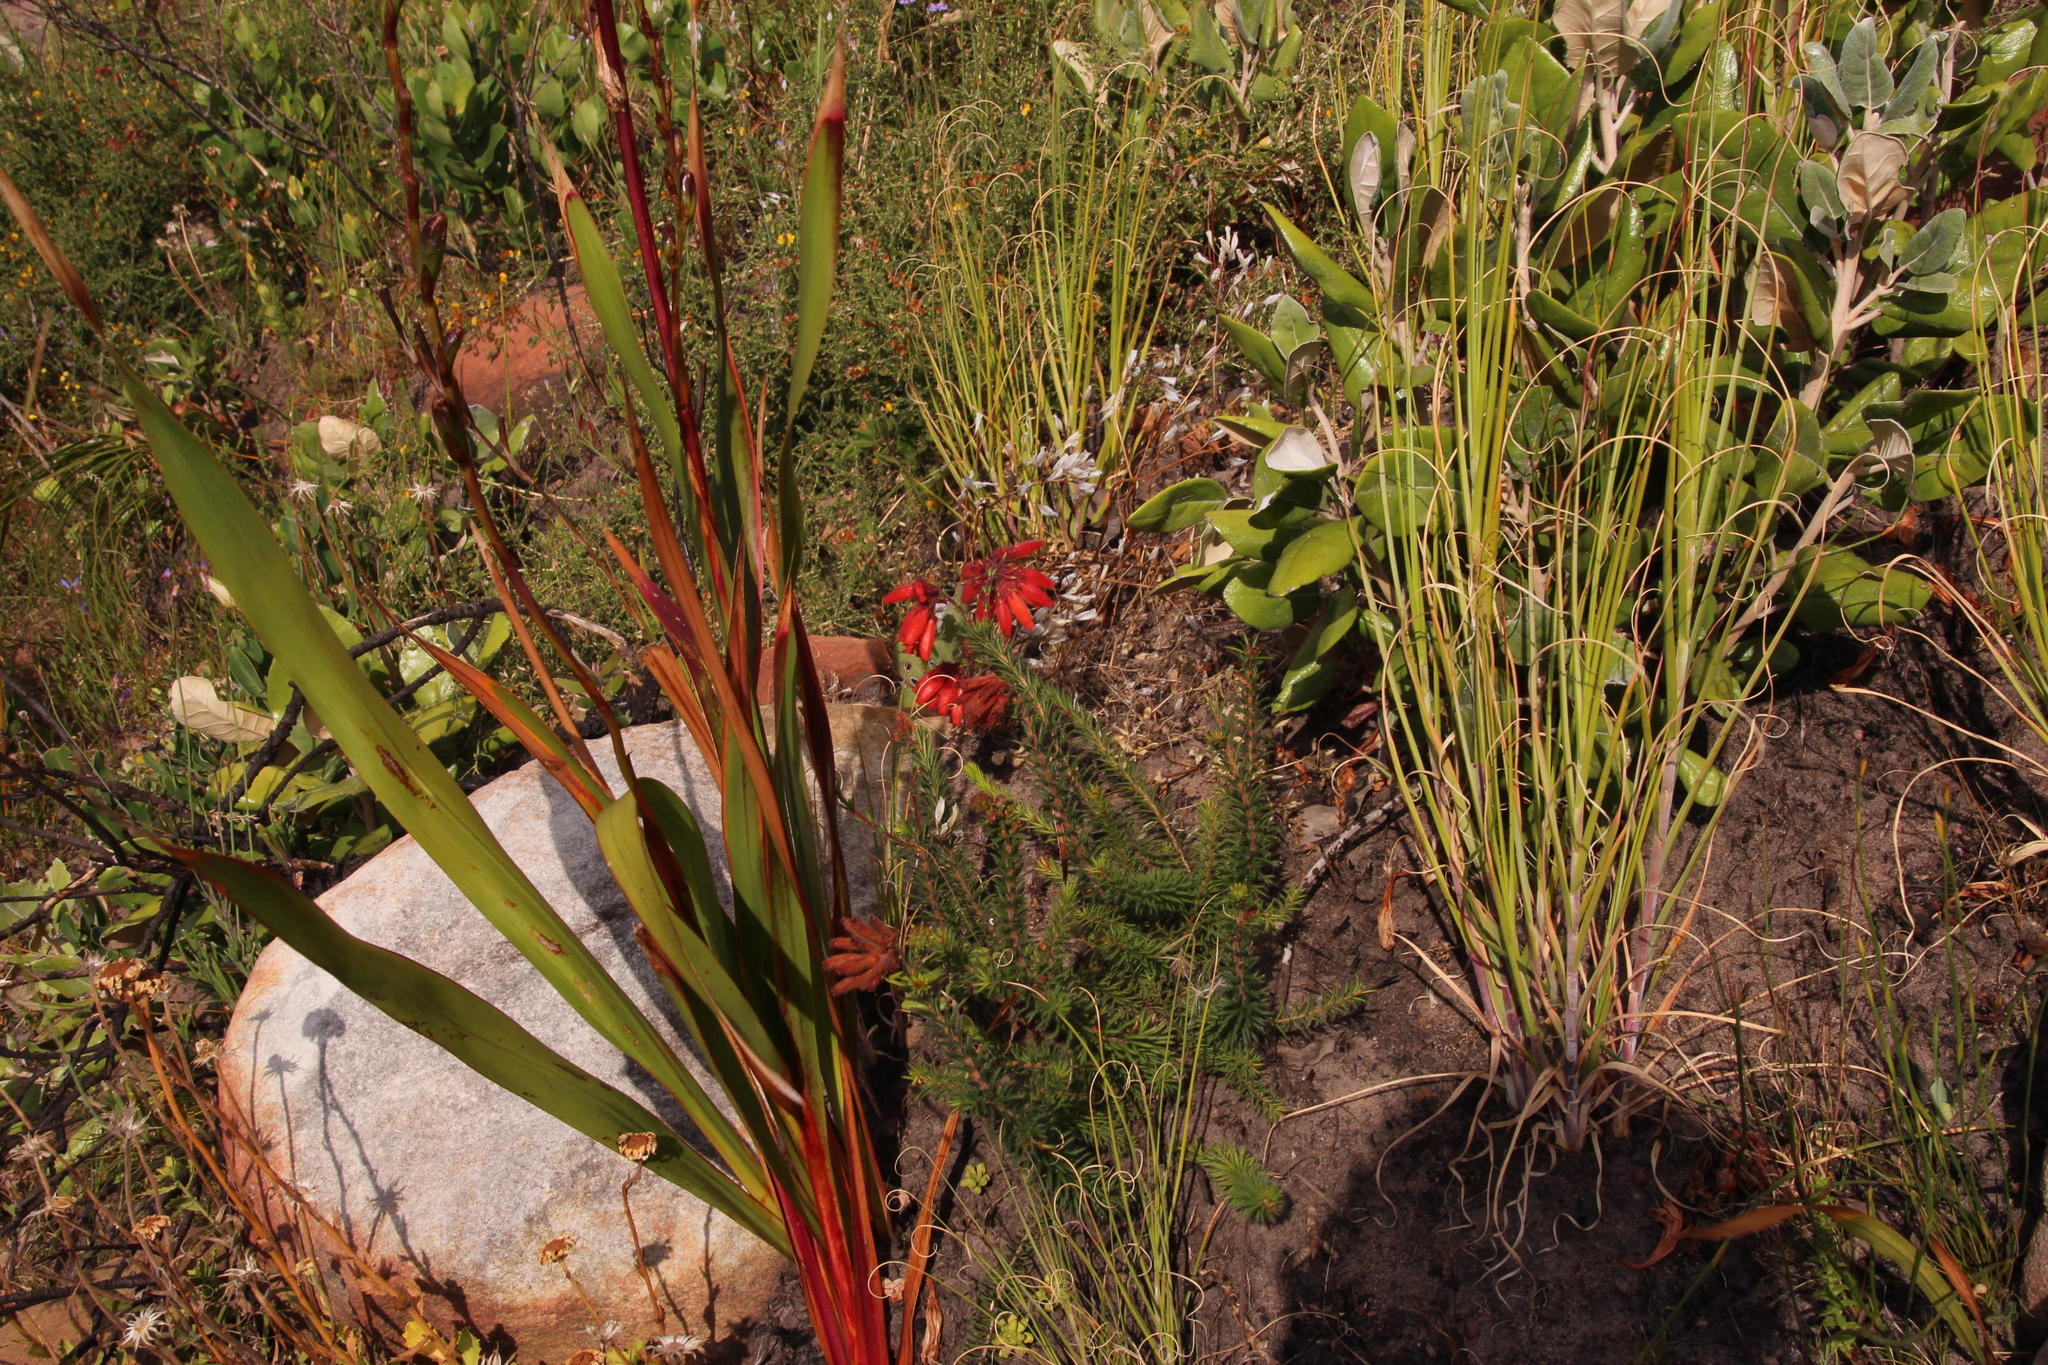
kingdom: Plantae
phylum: Tracheophyta
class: Magnoliopsida
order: Ericales
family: Ericaceae
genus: Erica
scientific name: Erica cerinthoides
